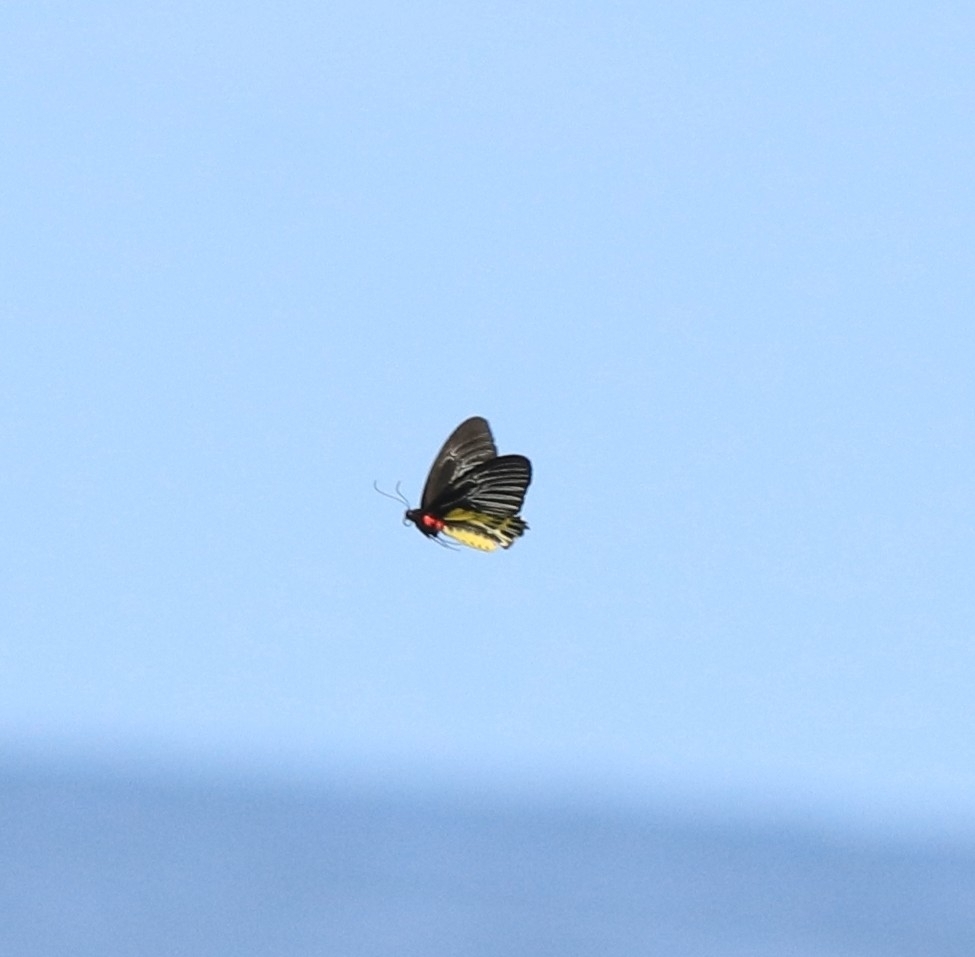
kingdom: Animalia
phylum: Arthropoda
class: Insecta
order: Lepidoptera
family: Papilionidae
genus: Troides
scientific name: Troides minos
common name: Malabar birdwing
